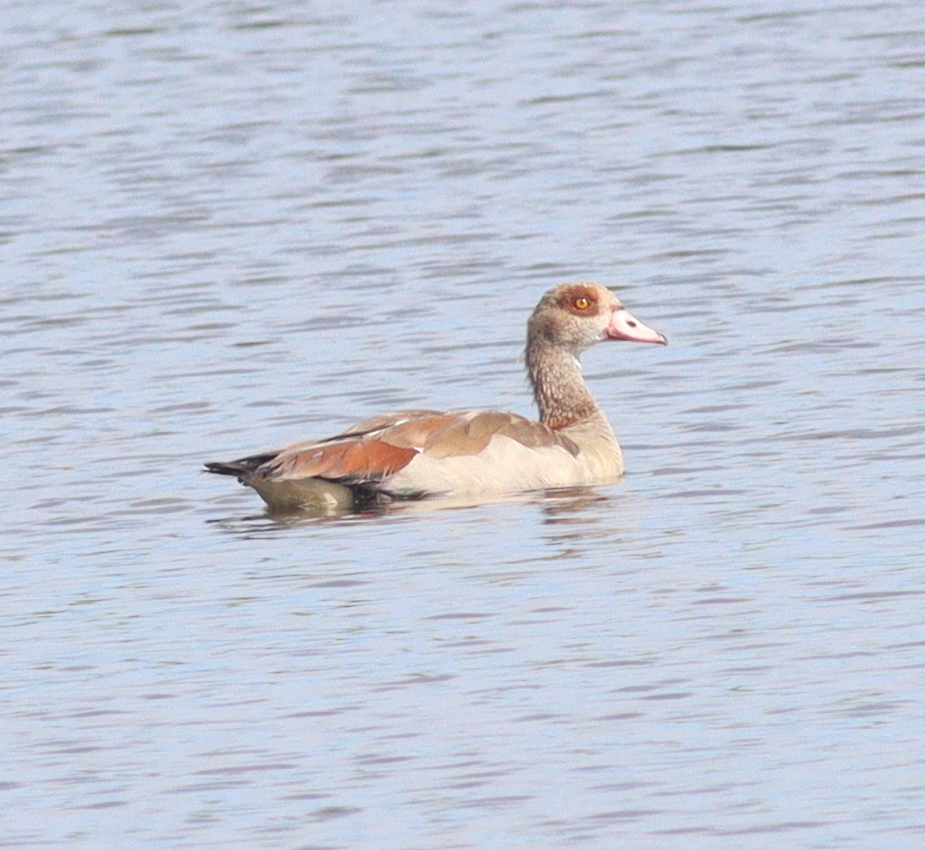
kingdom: Animalia
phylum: Chordata
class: Aves
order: Anseriformes
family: Anatidae
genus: Alopochen
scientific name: Alopochen aegyptiaca
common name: Egyptian goose
